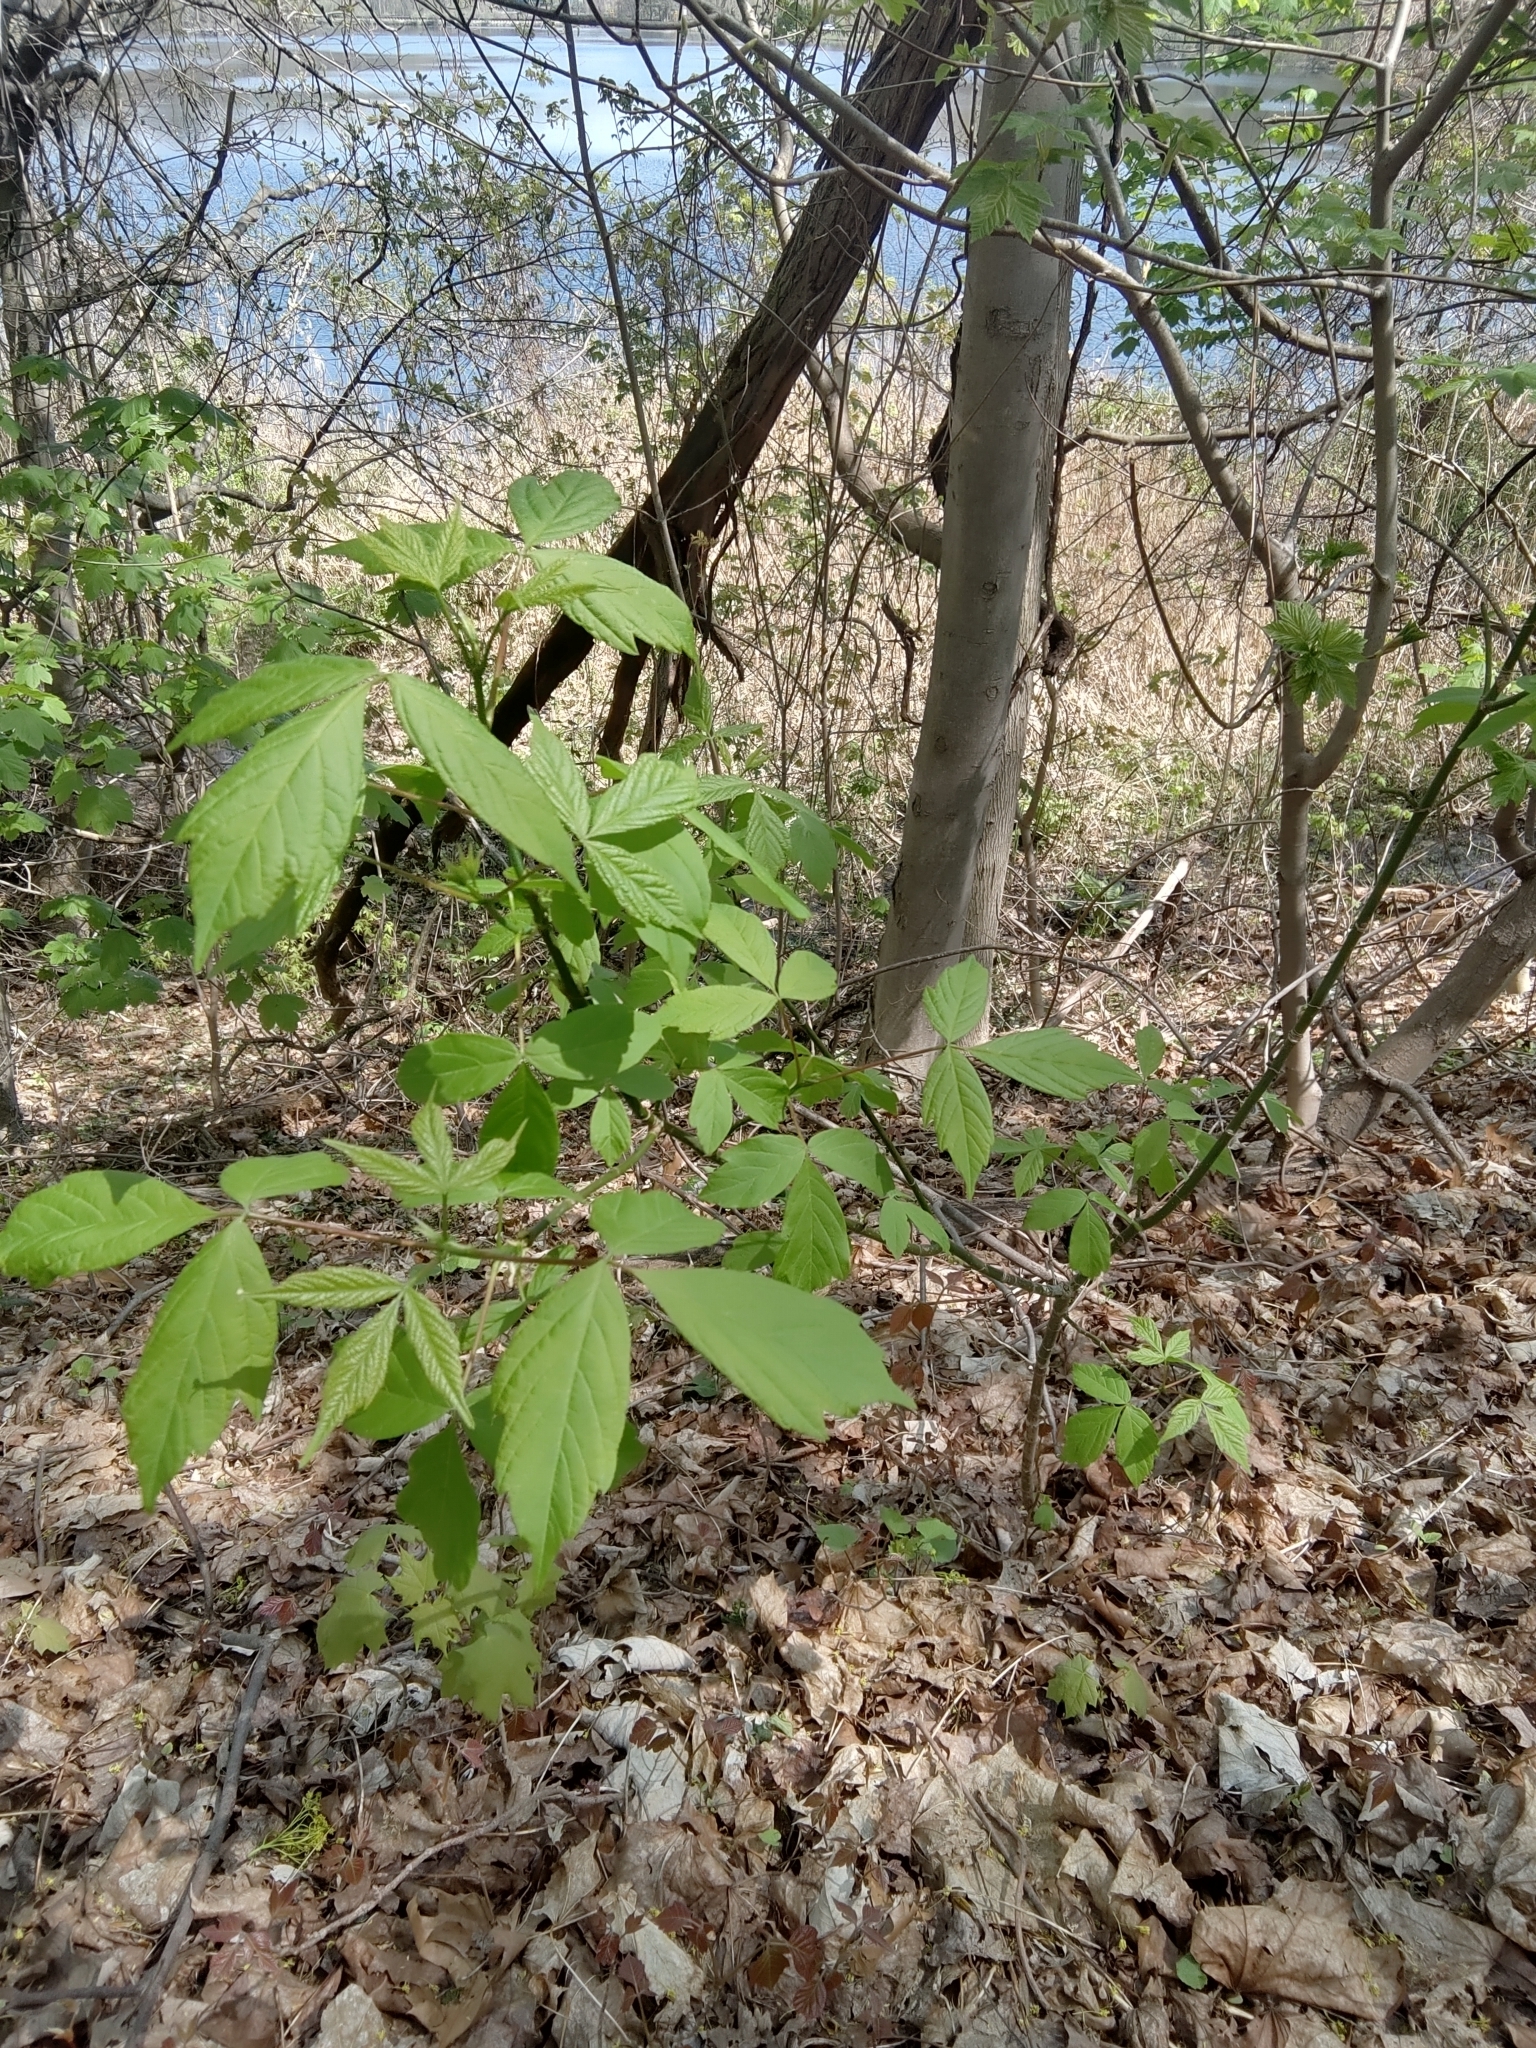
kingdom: Plantae
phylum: Tracheophyta
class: Magnoliopsida
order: Sapindales
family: Sapindaceae
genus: Acer
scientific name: Acer negundo
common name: Ashleaf maple
